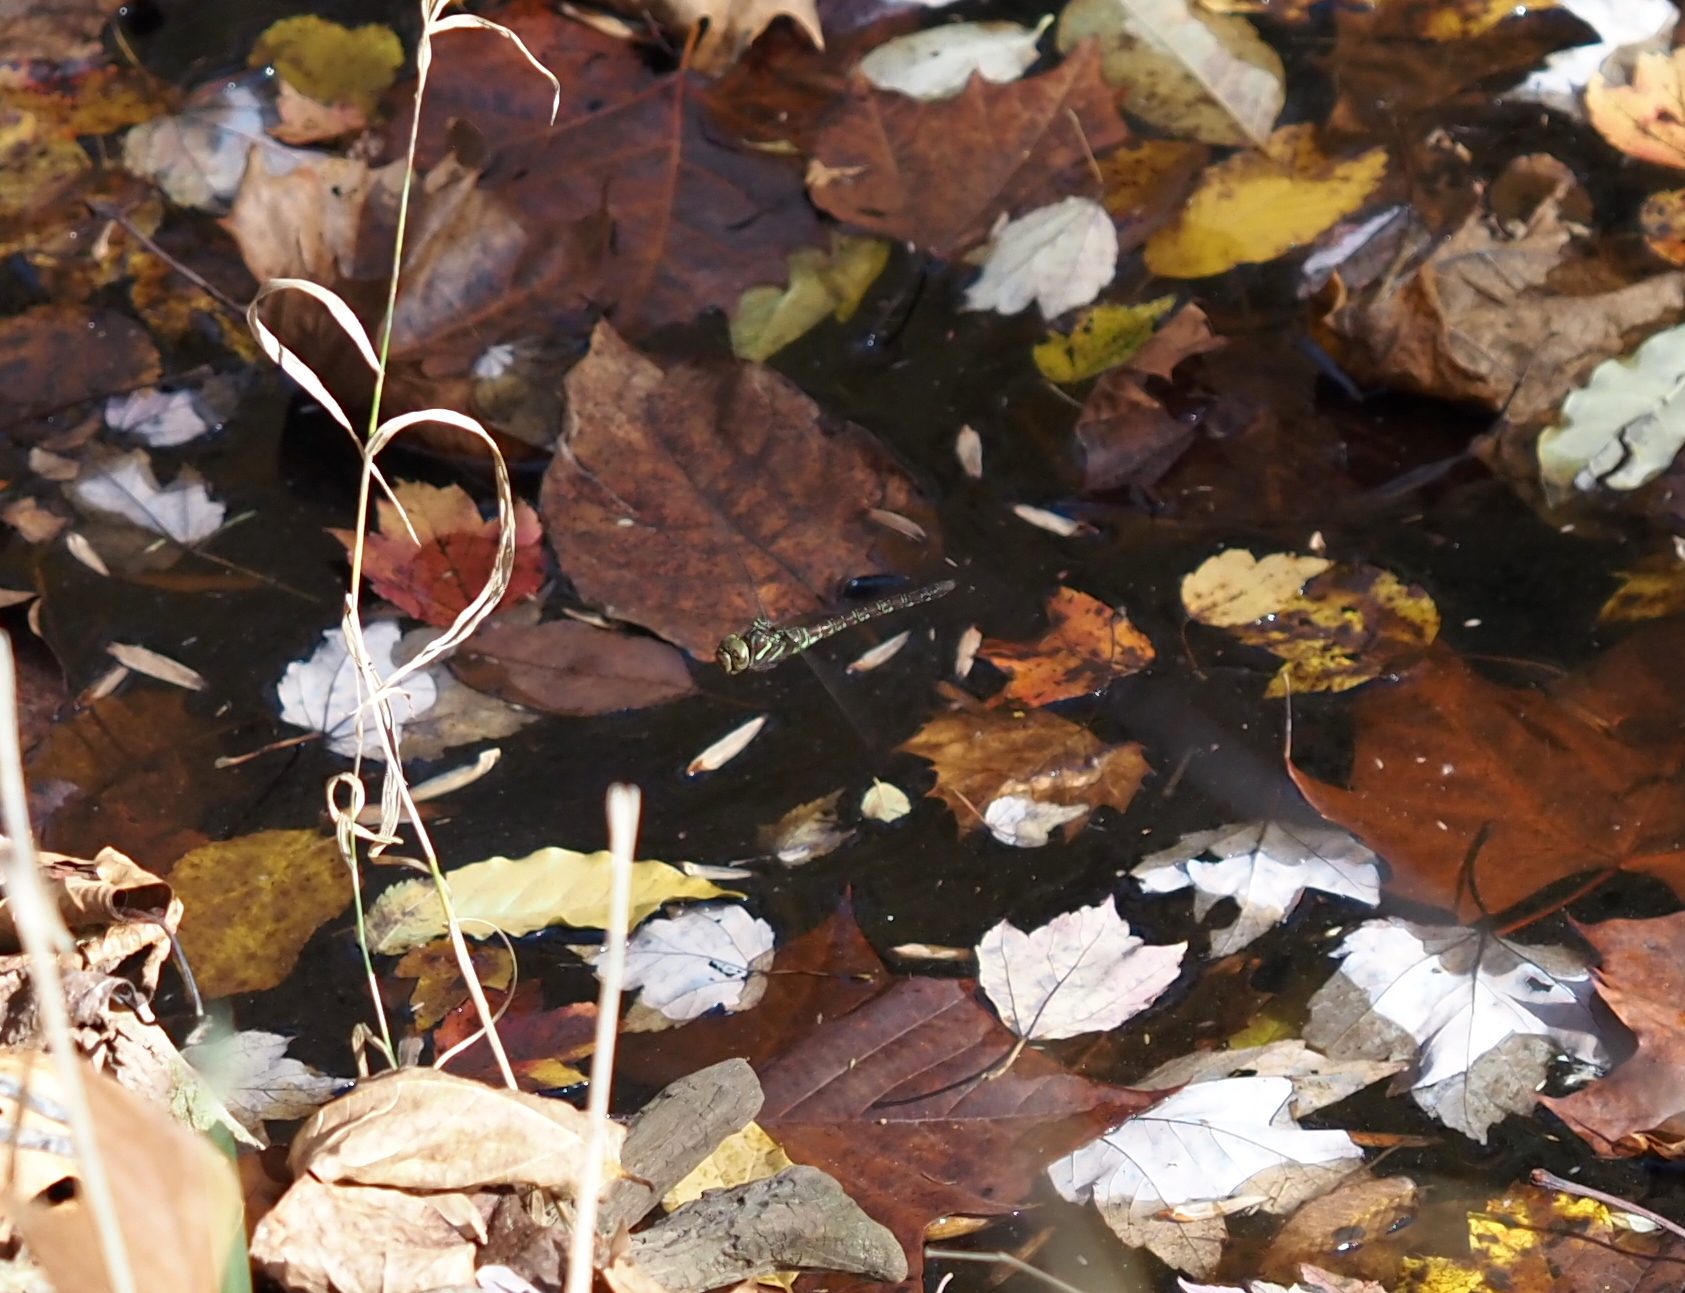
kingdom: Animalia
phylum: Arthropoda
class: Insecta
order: Odonata
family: Aeshnidae
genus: Aeshna
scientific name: Aeshna umbrosa
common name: Shadow darner
